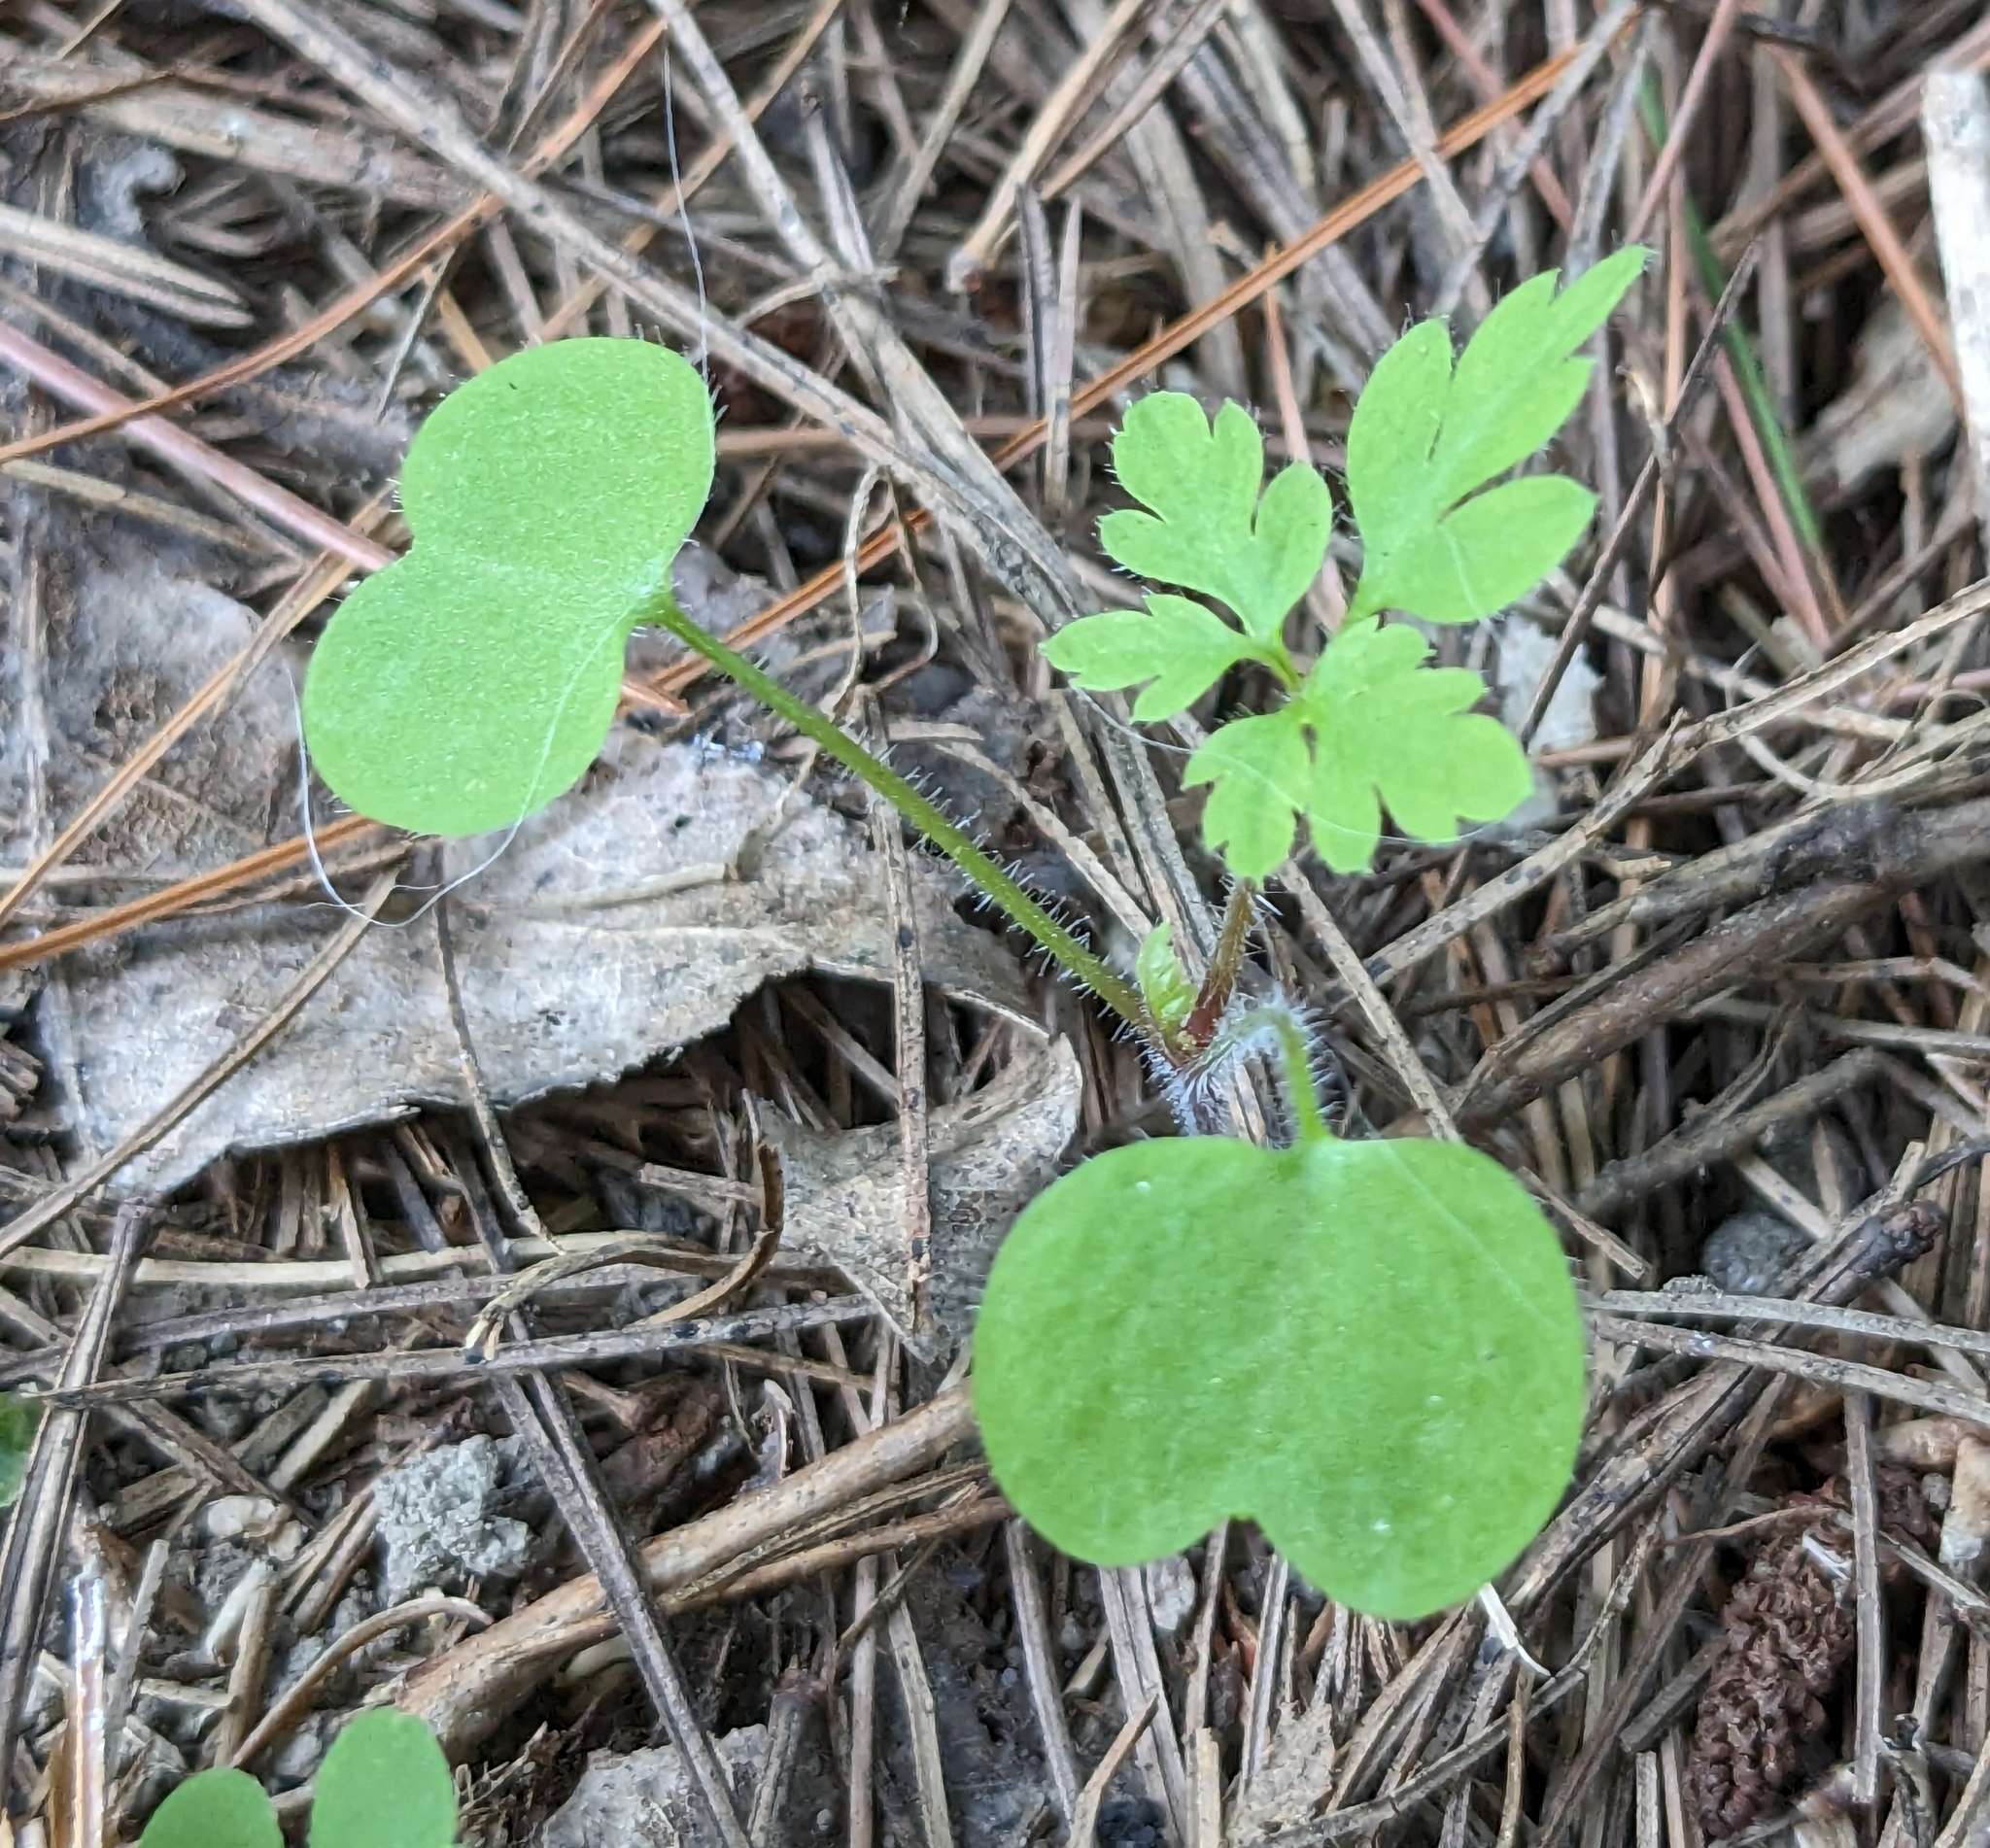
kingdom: Plantae
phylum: Tracheophyta
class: Magnoliopsida
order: Geraniales
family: Geraniaceae
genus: Geranium
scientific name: Geranium robertianum
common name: Herb-robert
